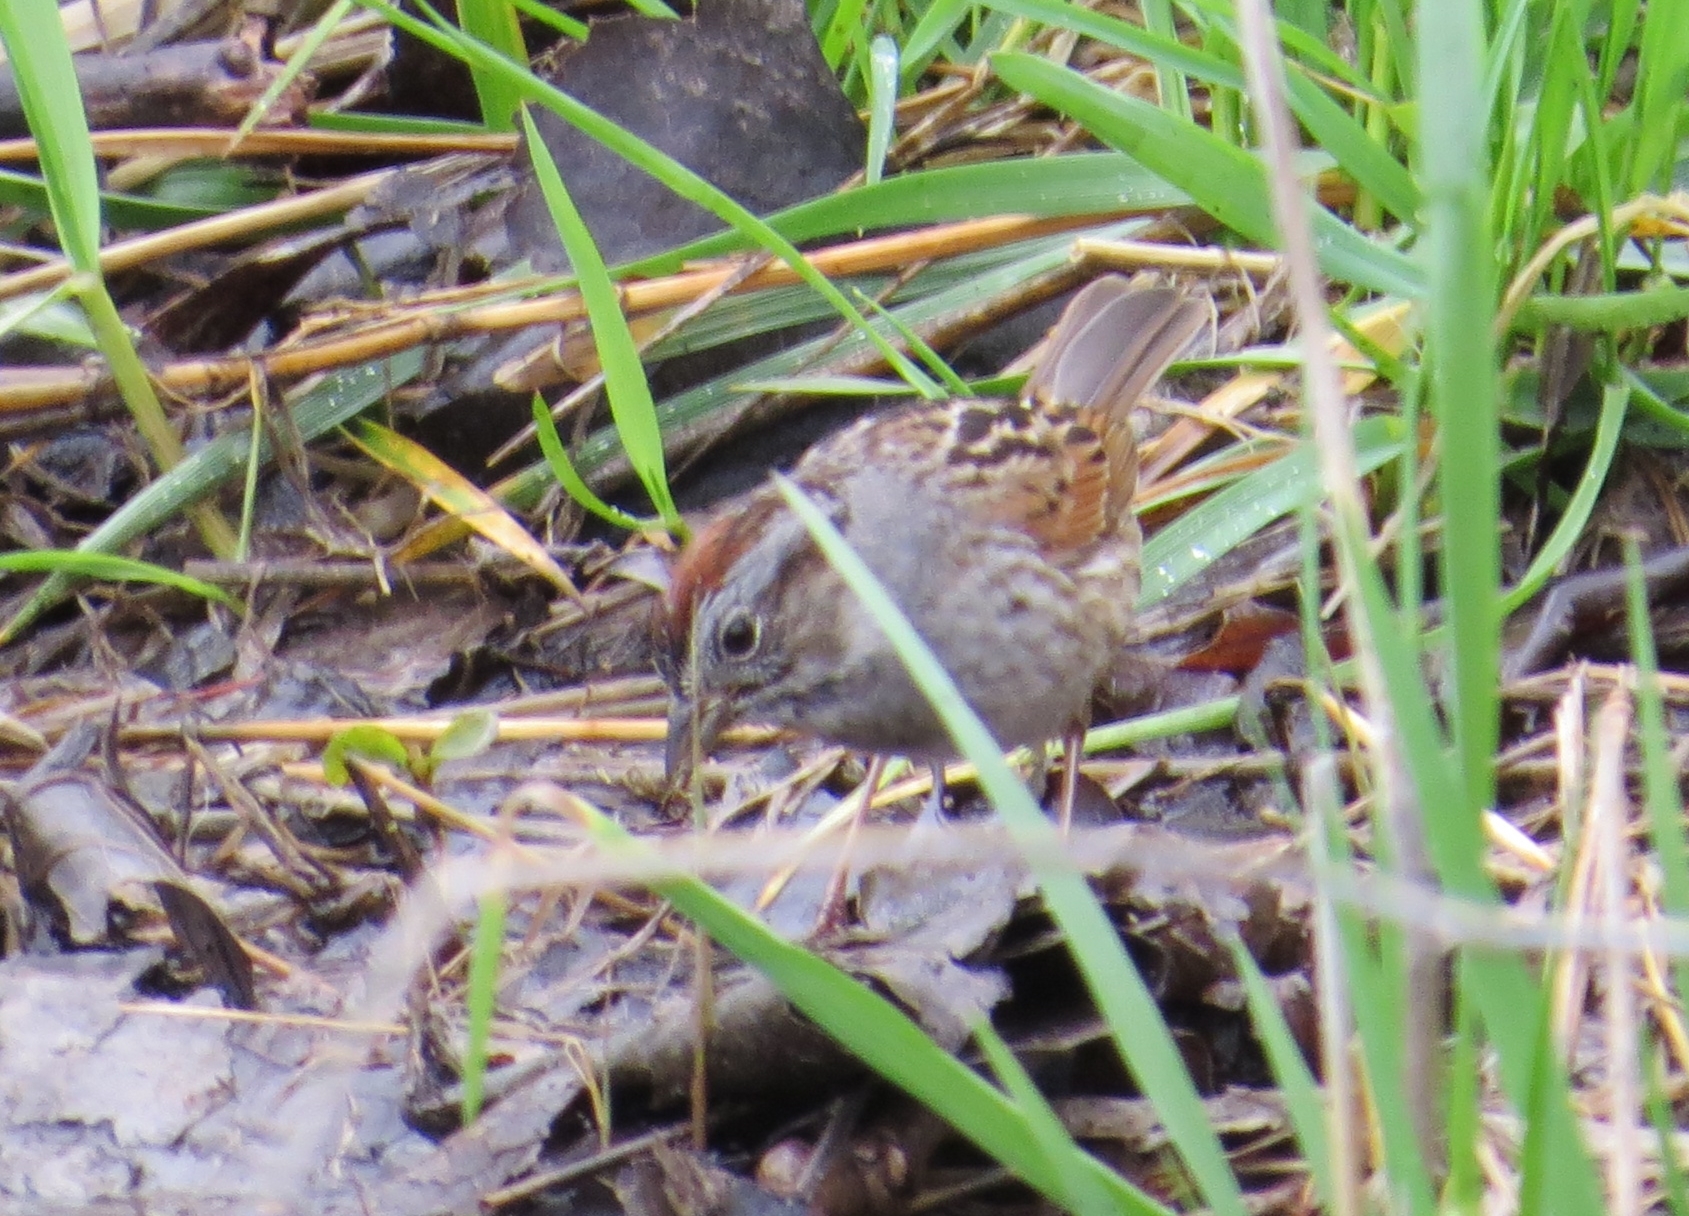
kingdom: Animalia
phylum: Chordata
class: Aves
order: Passeriformes
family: Passerellidae
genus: Melospiza
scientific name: Melospiza georgiana
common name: Swamp sparrow
